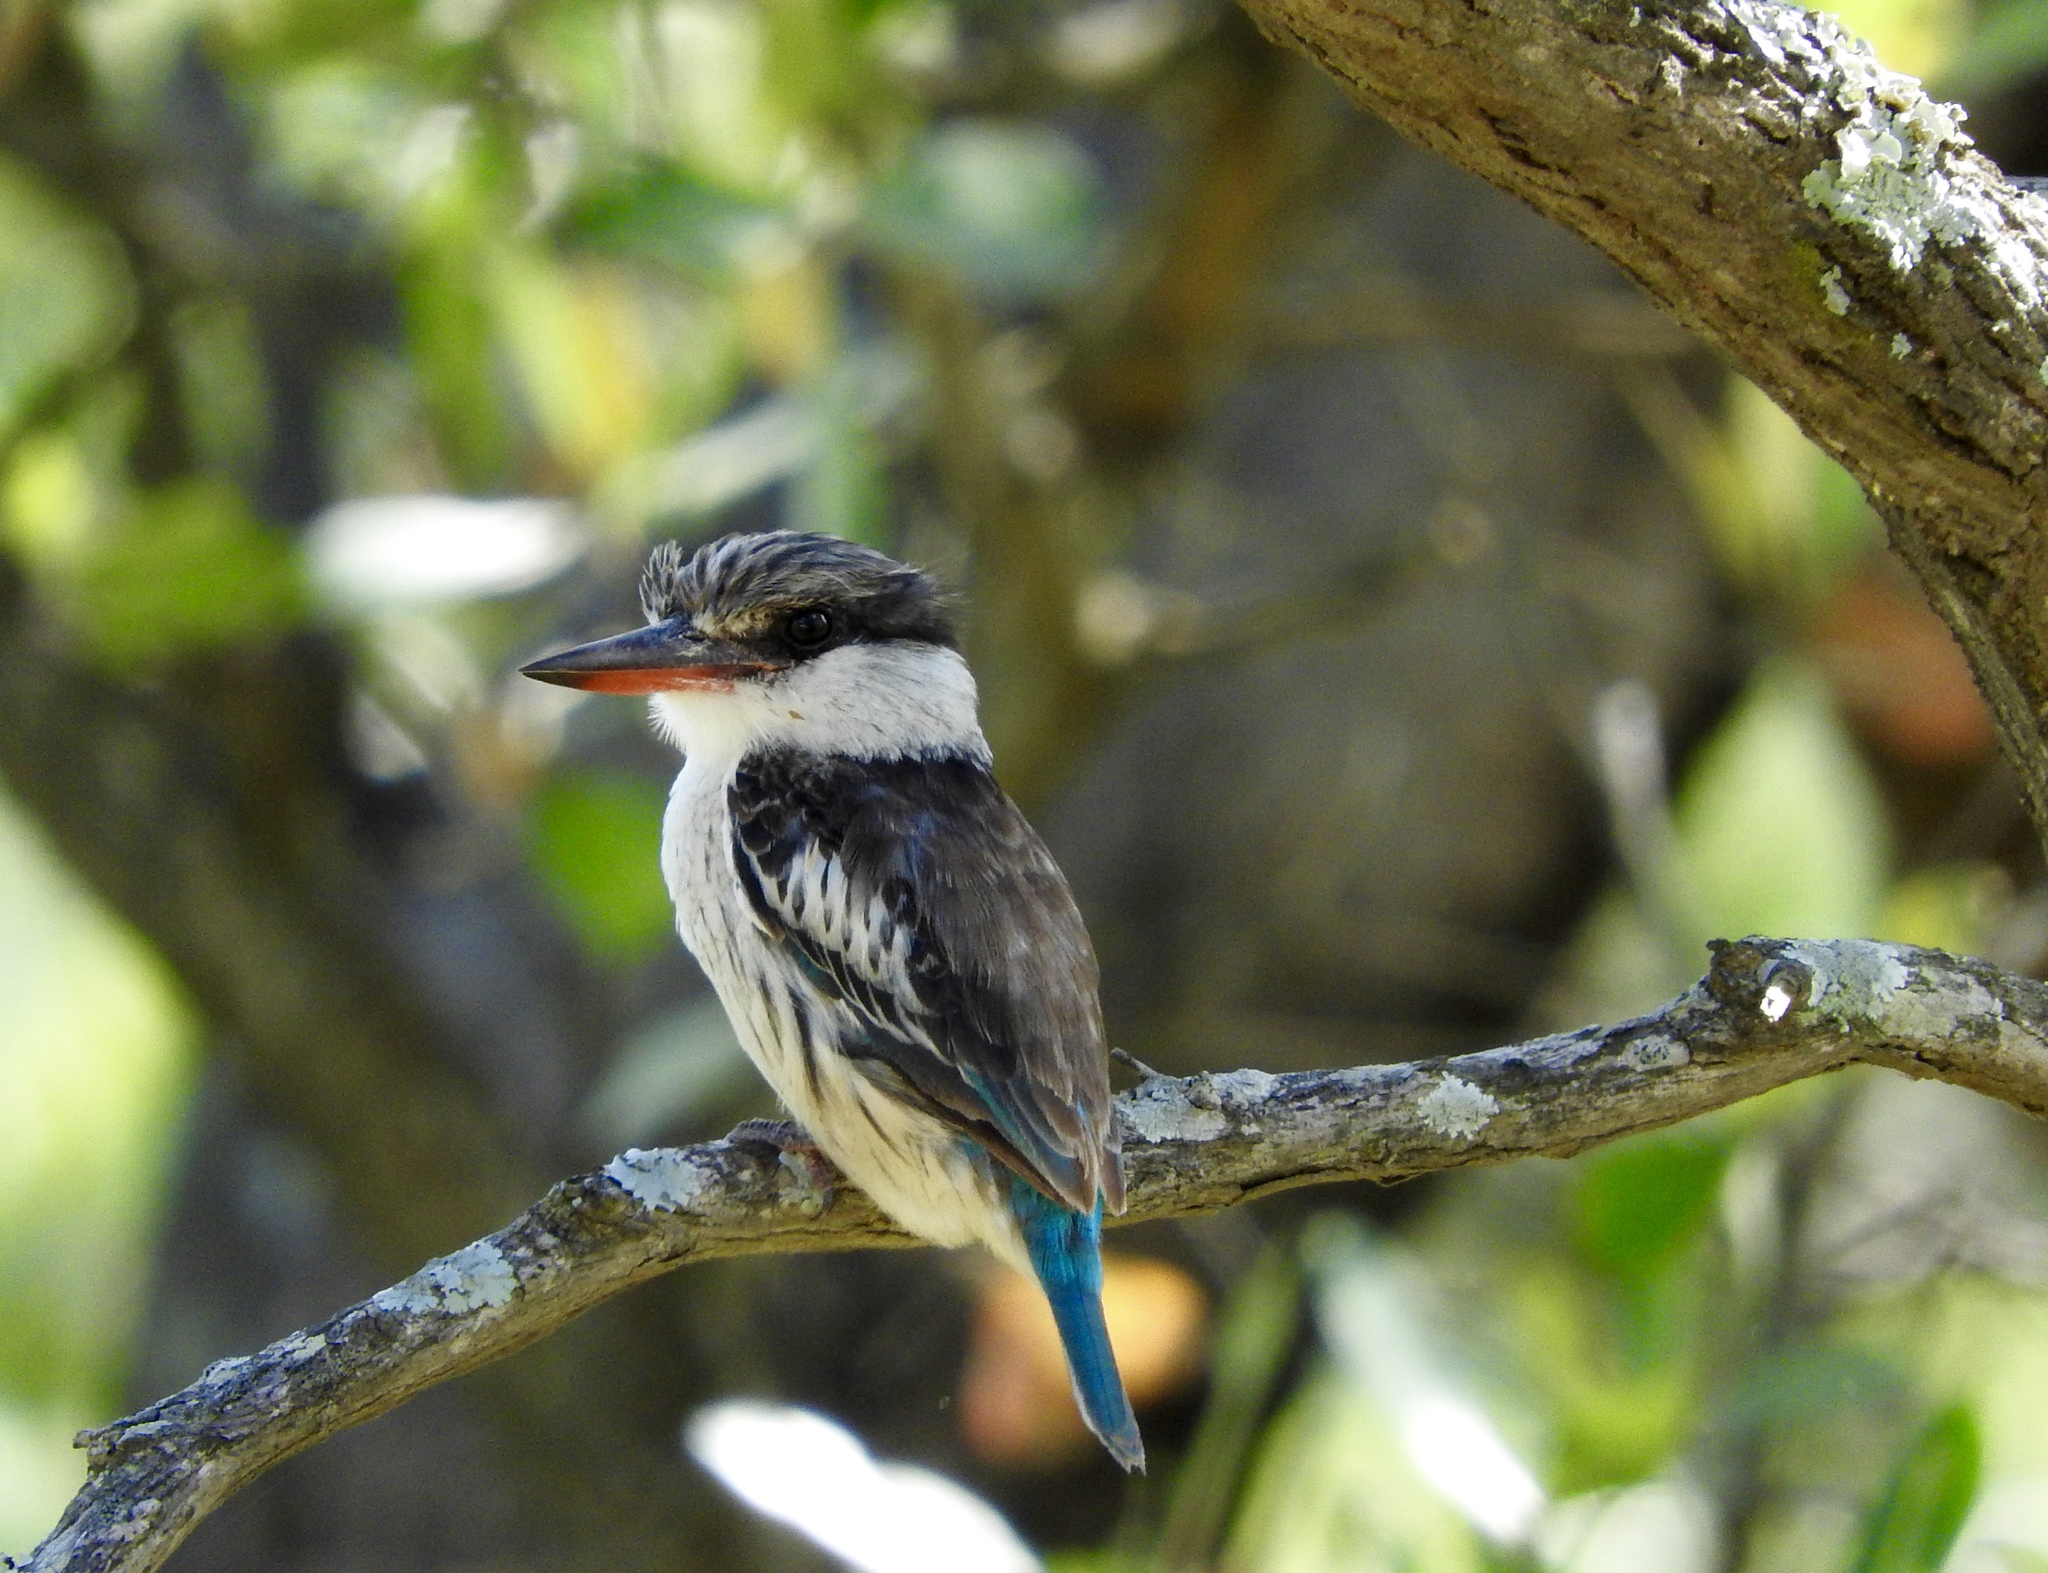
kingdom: Animalia
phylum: Chordata
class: Aves
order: Coraciiformes
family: Alcedinidae
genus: Halcyon
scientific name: Halcyon chelicuti
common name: Striped kingfisher
